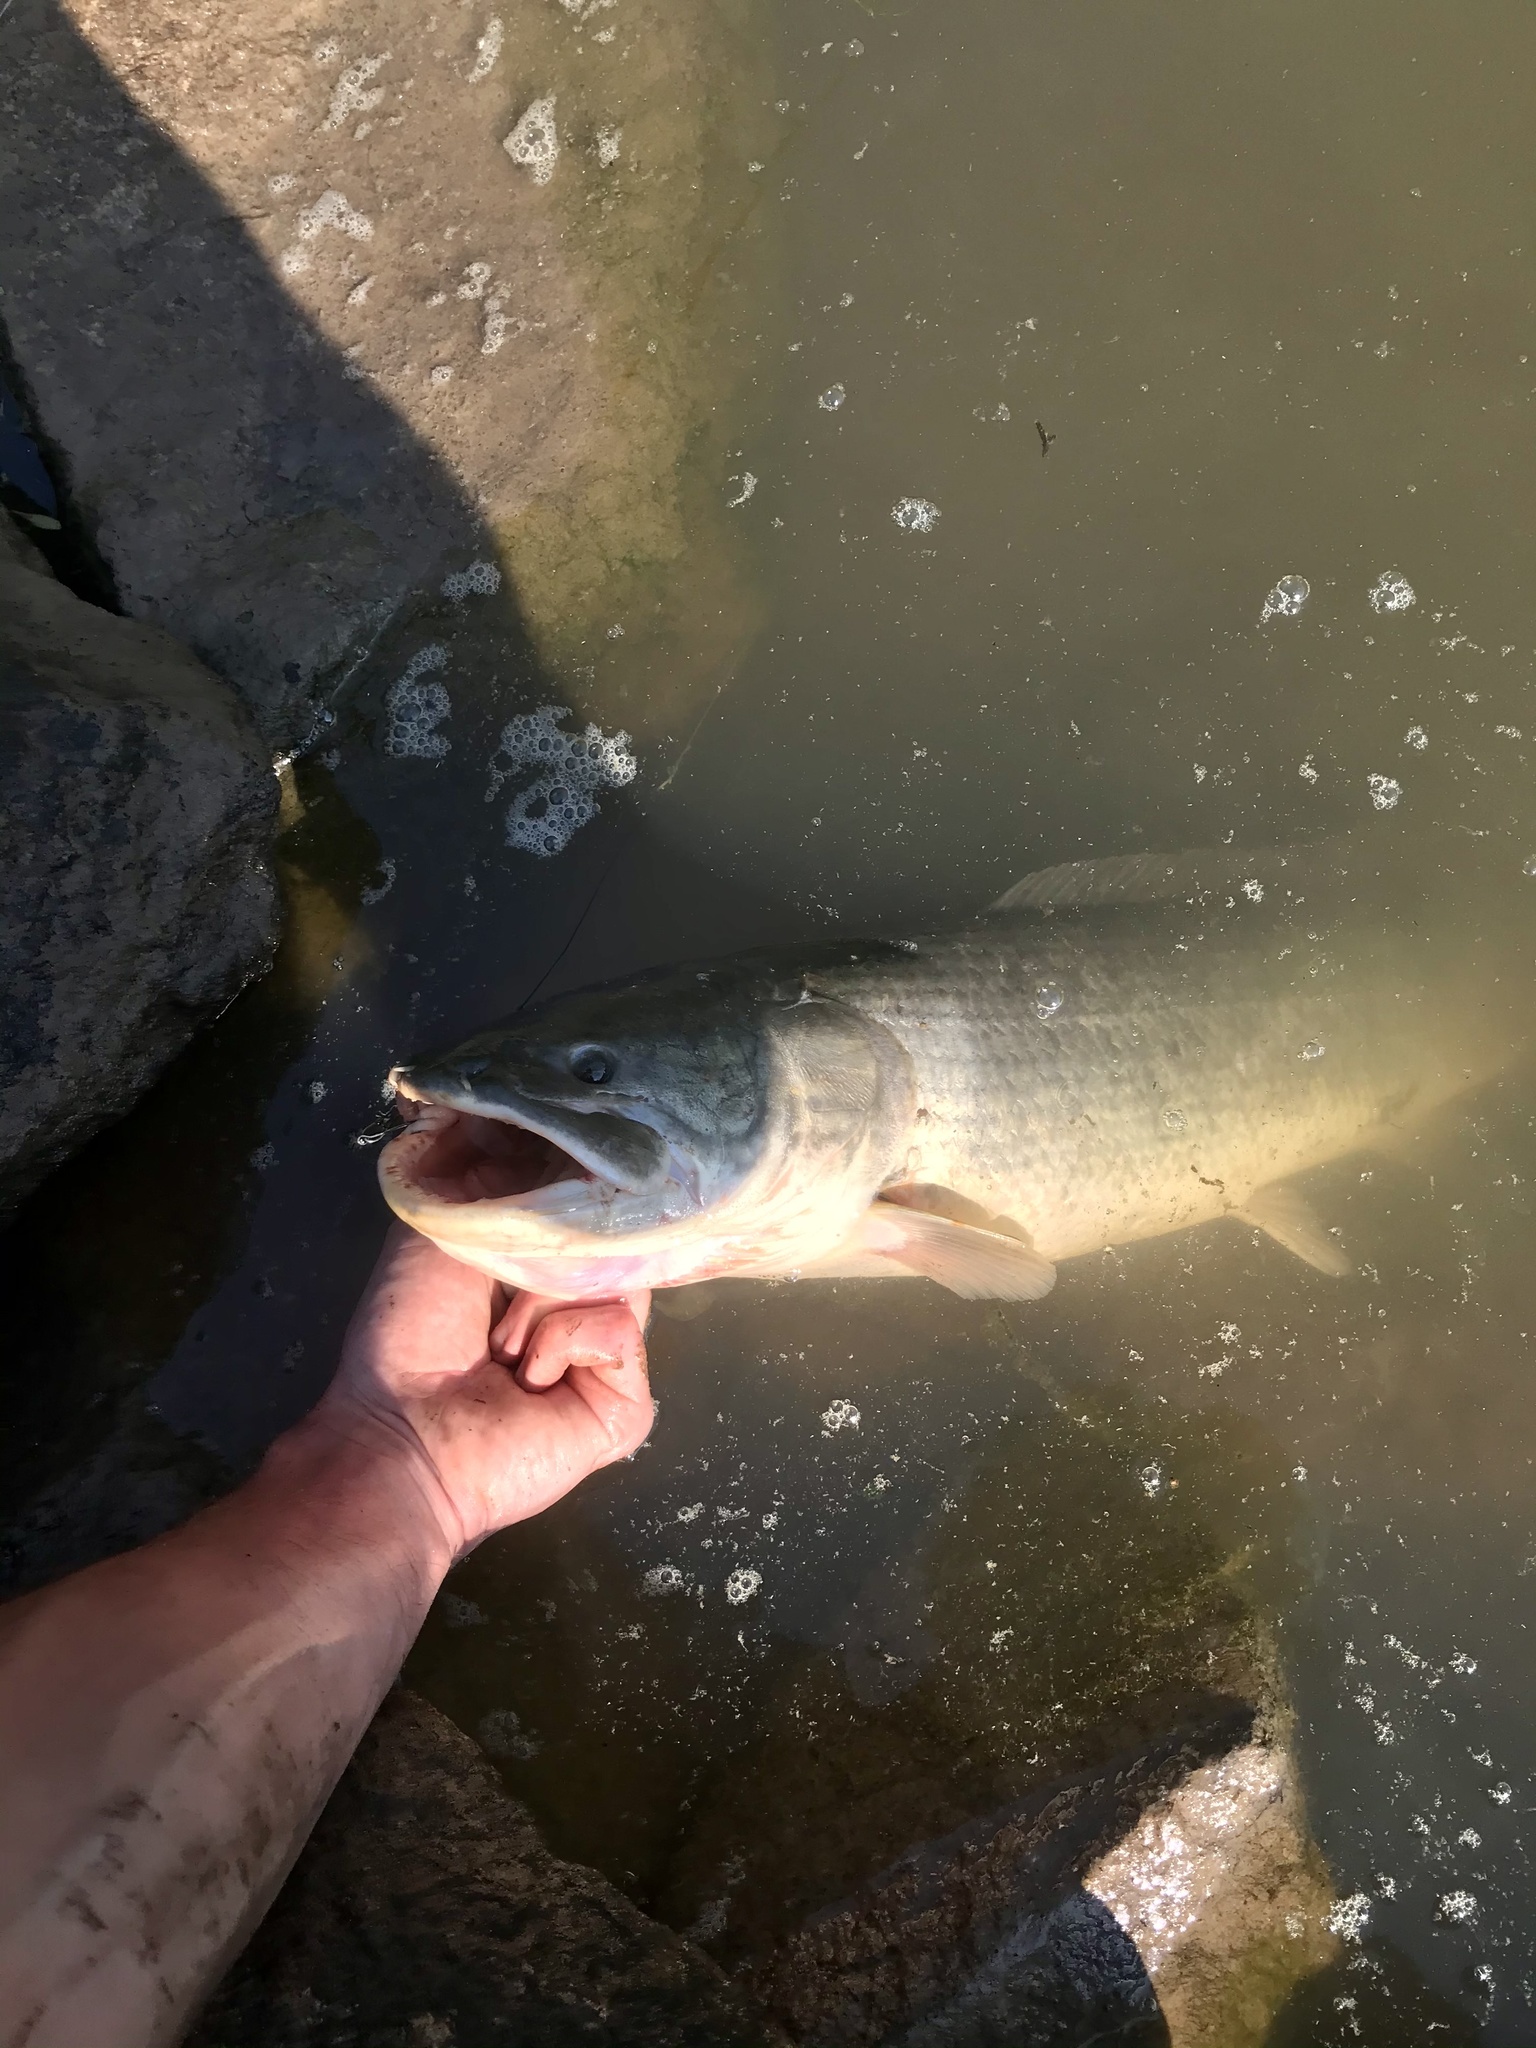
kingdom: Animalia
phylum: Chordata
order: Amiiformes
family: Amiidae
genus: Amia
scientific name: Amia calva
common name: Bowfin
